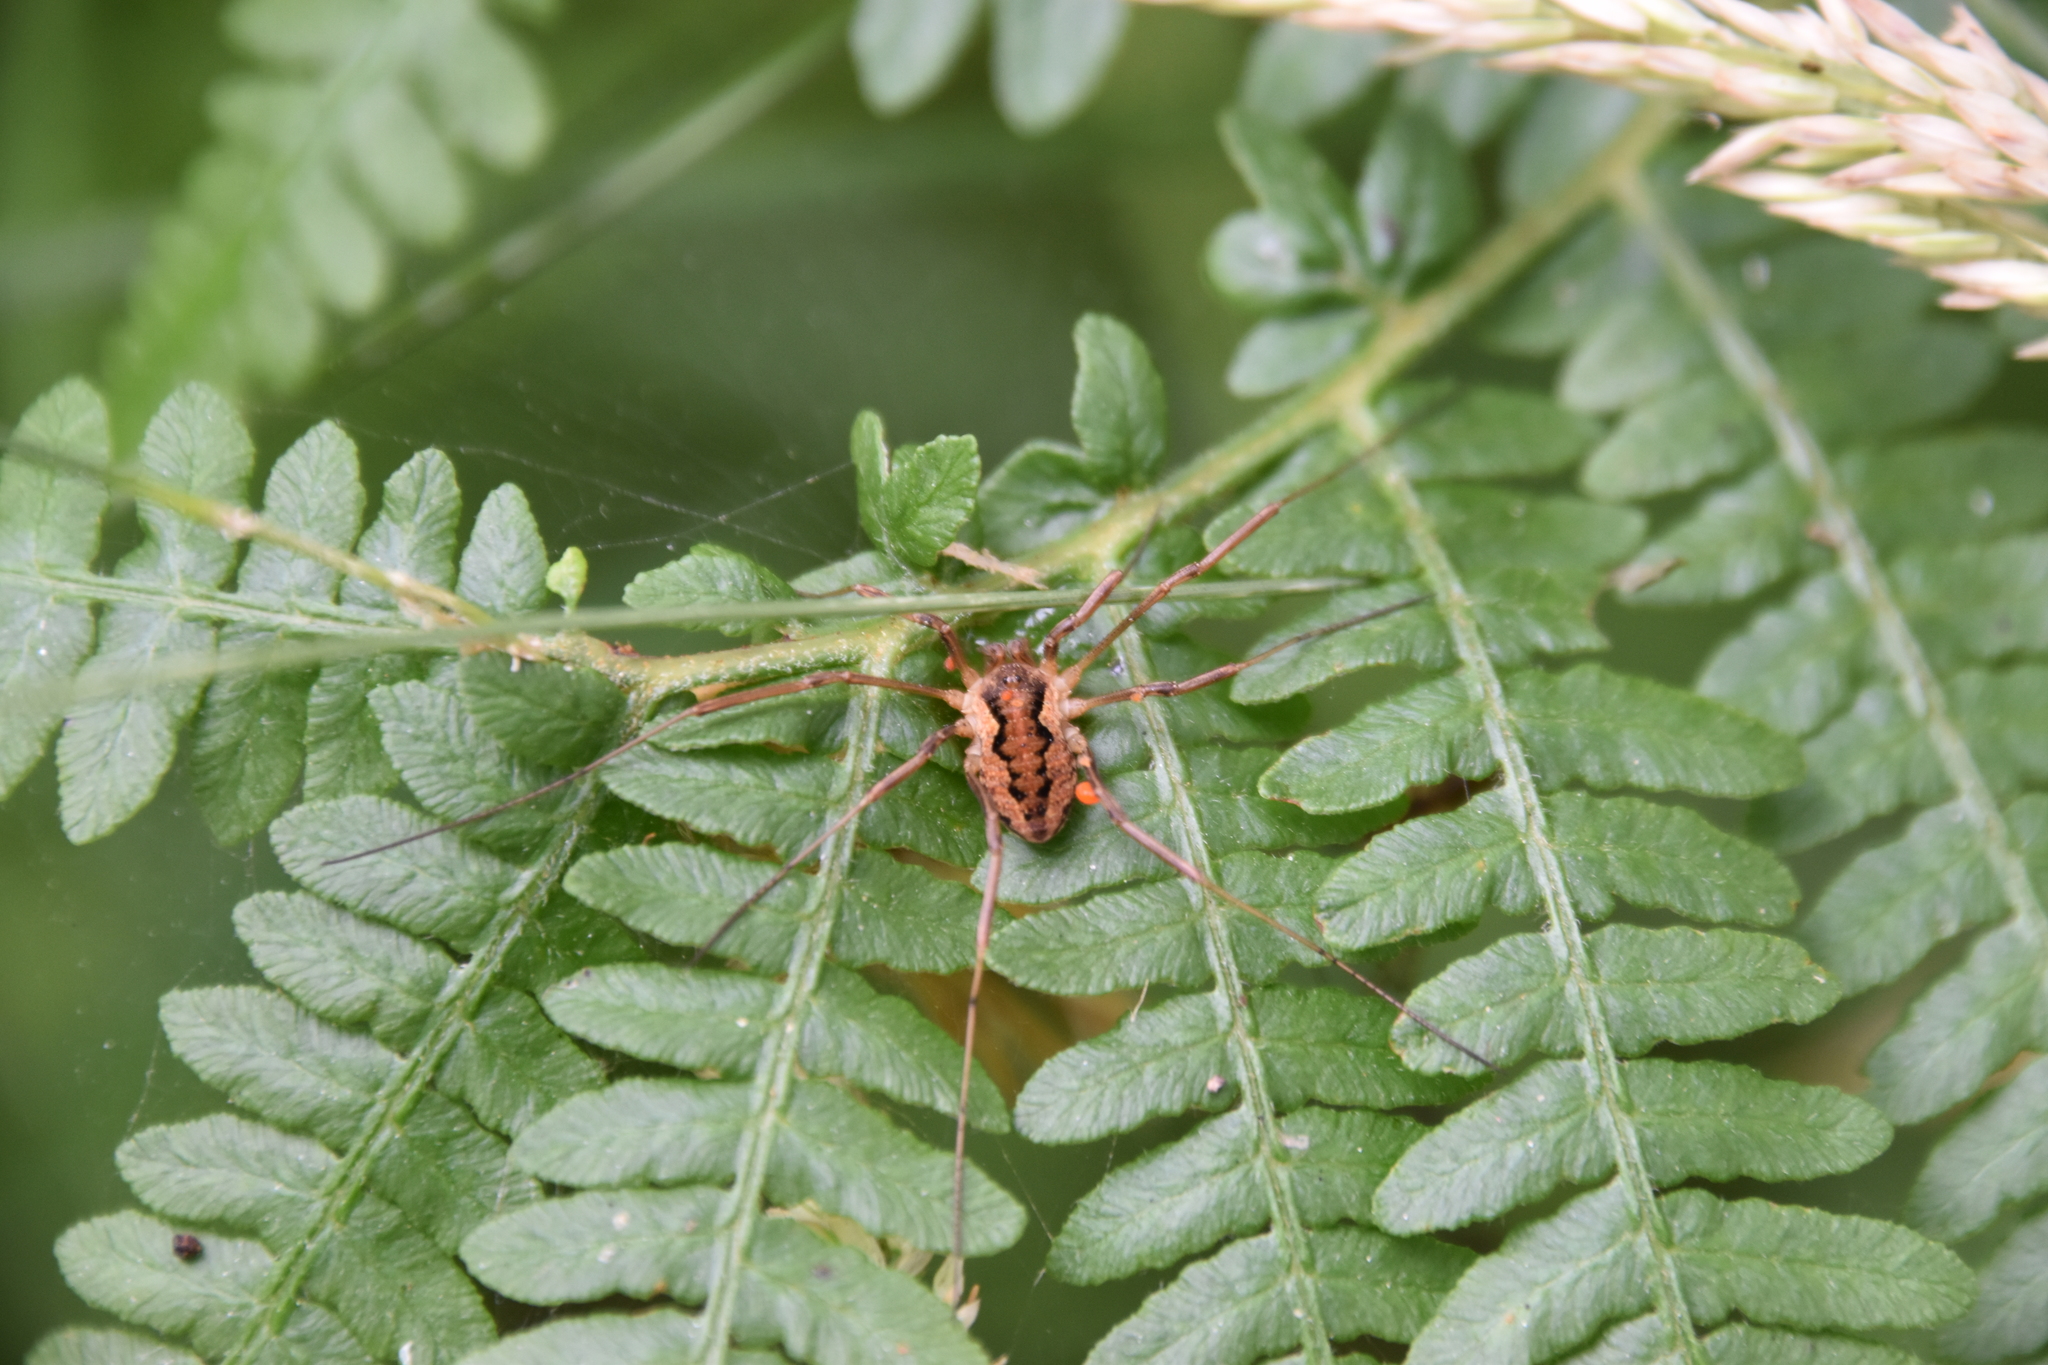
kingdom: Animalia
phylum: Arthropoda
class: Arachnida
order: Opiliones
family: Phalangiidae
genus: Mitopus
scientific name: Mitopus morio
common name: Saddleback harvestman
